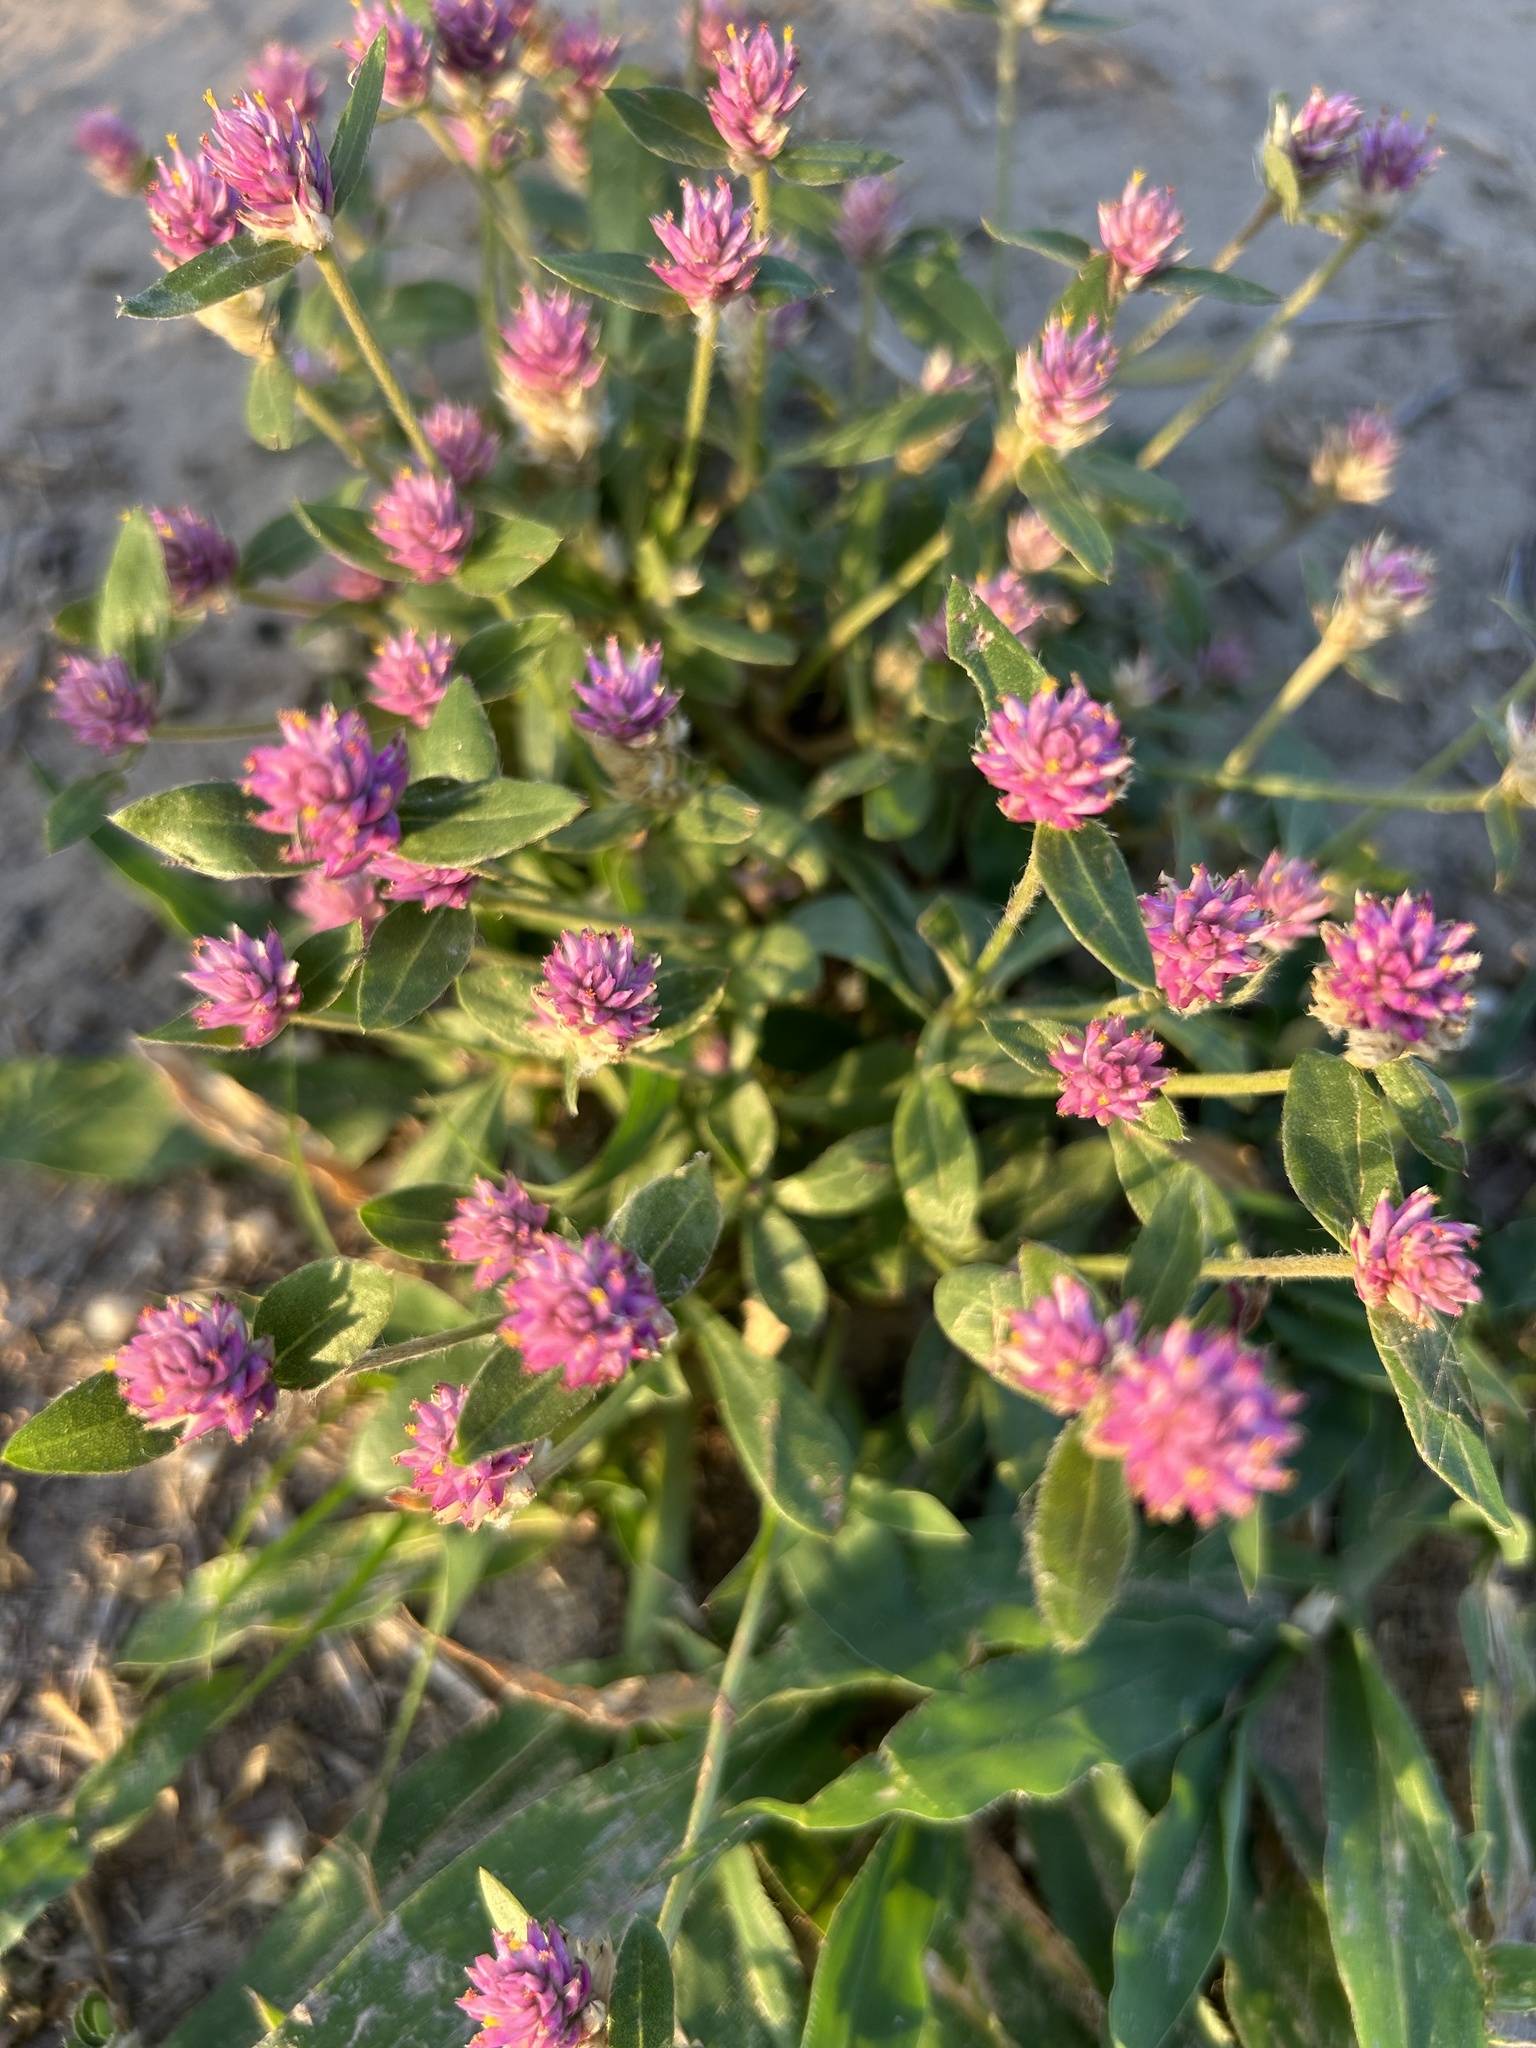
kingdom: Plantae
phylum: Tracheophyta
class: Magnoliopsida
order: Caryophyllales
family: Amaranthaceae
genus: Gomphrena
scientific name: Gomphrena globosa
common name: Common globe amaranth
